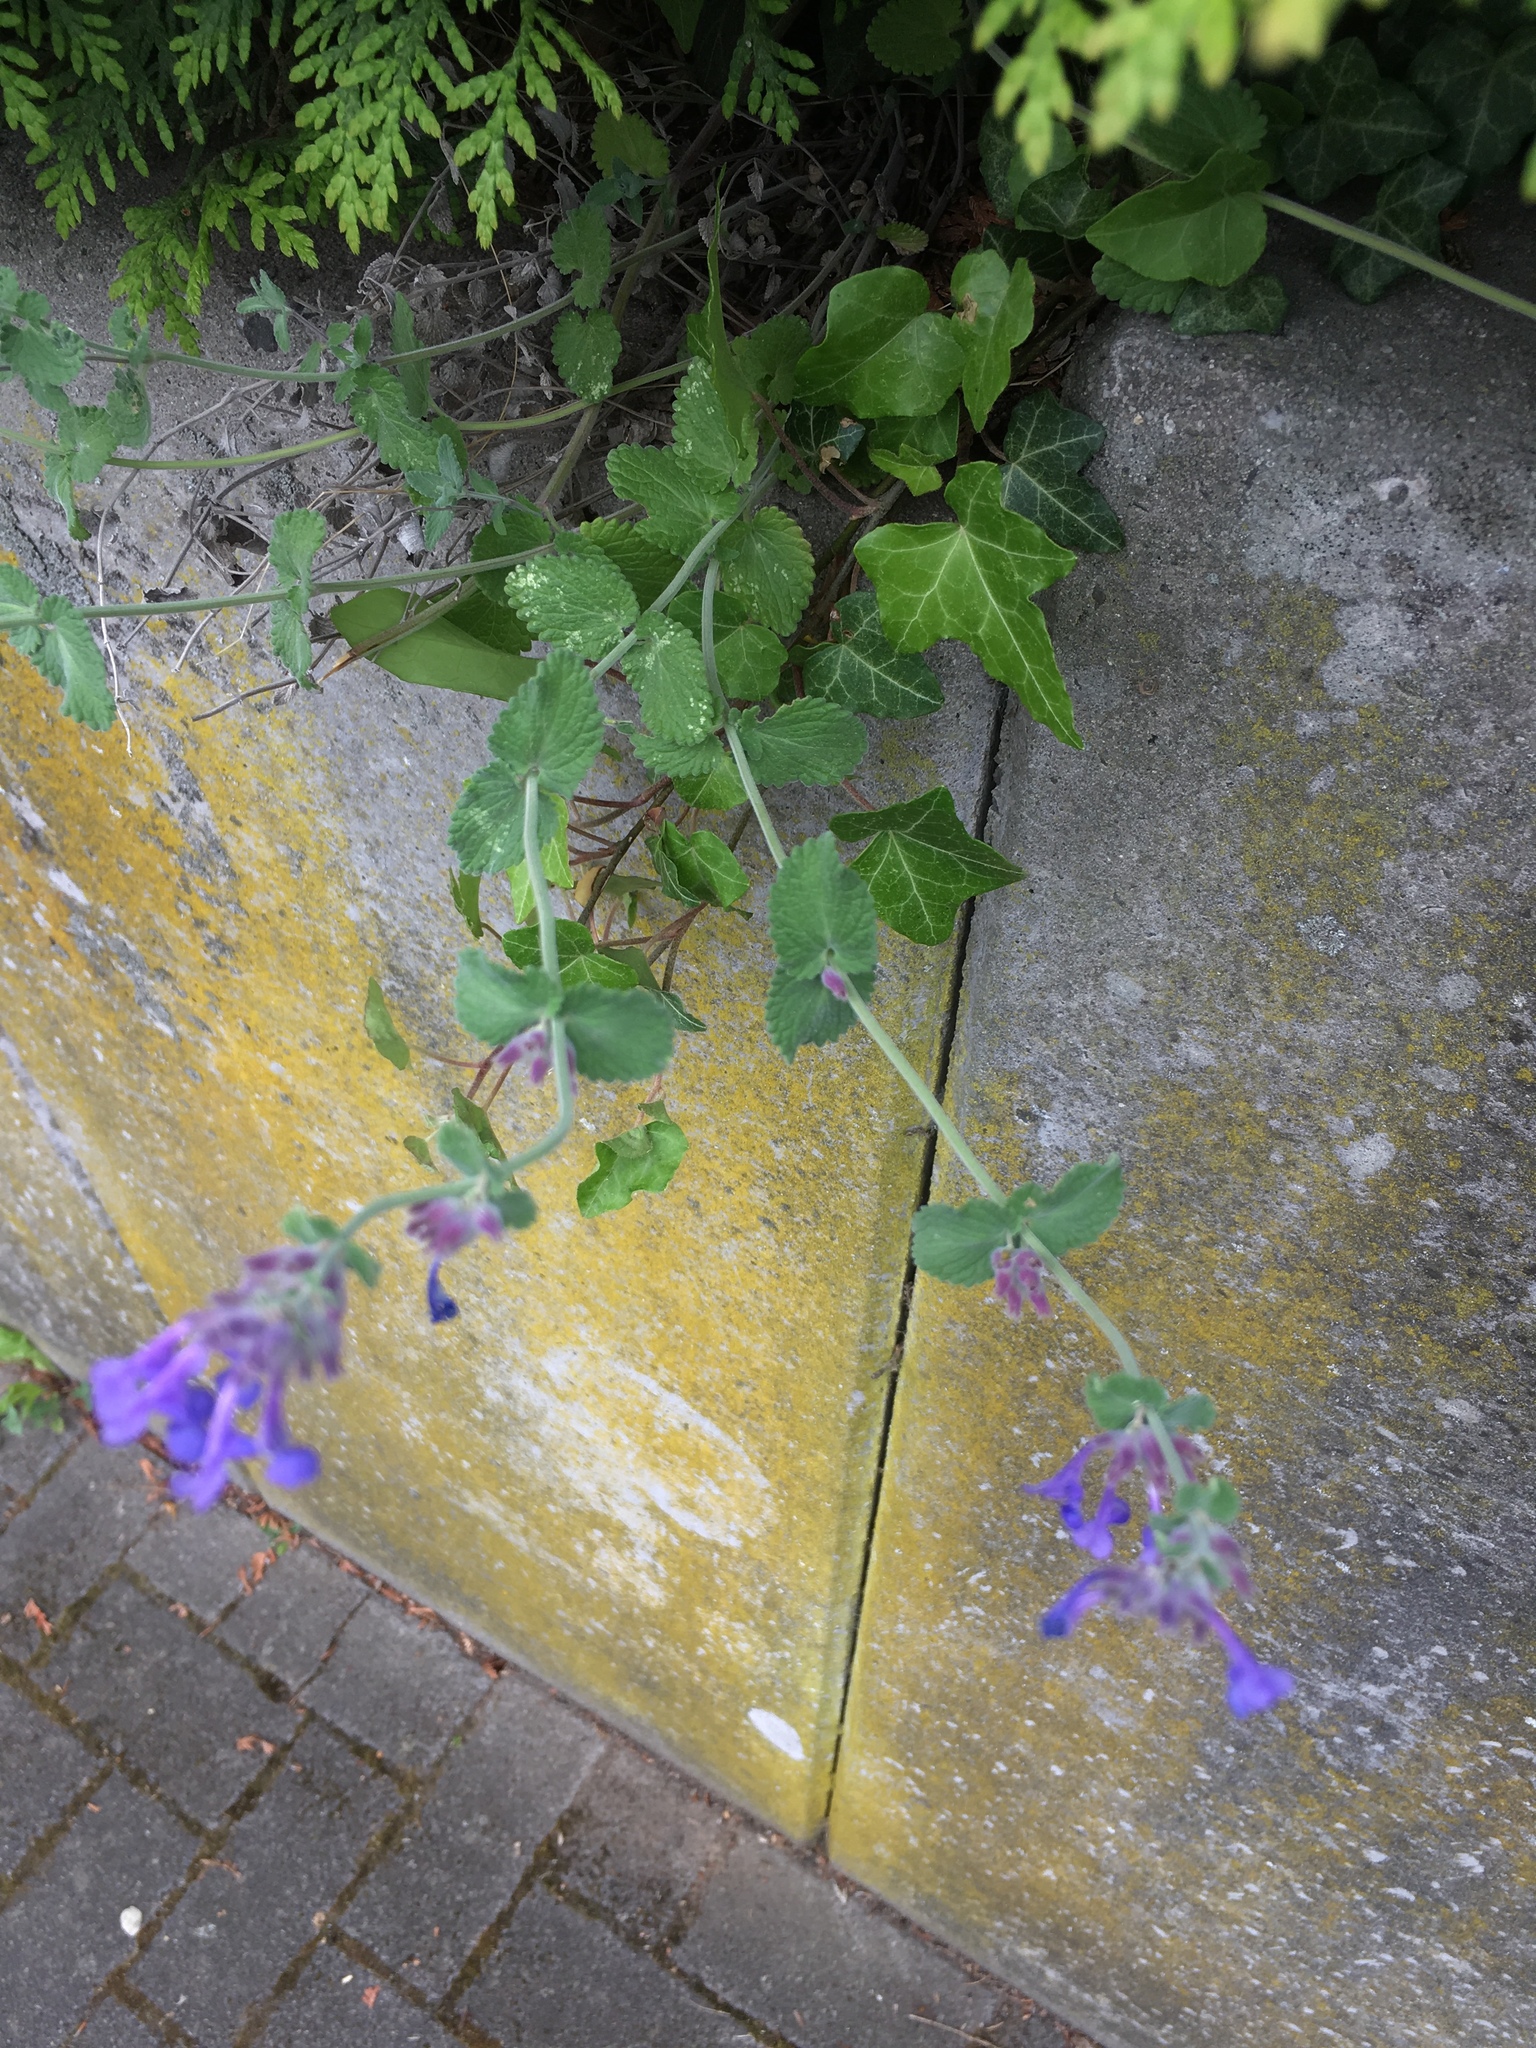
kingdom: Plantae
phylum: Tracheophyta
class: Magnoliopsida
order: Lamiales
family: Lamiaceae
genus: Nepeta
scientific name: Nepeta racemosa
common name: Raceme catnip
